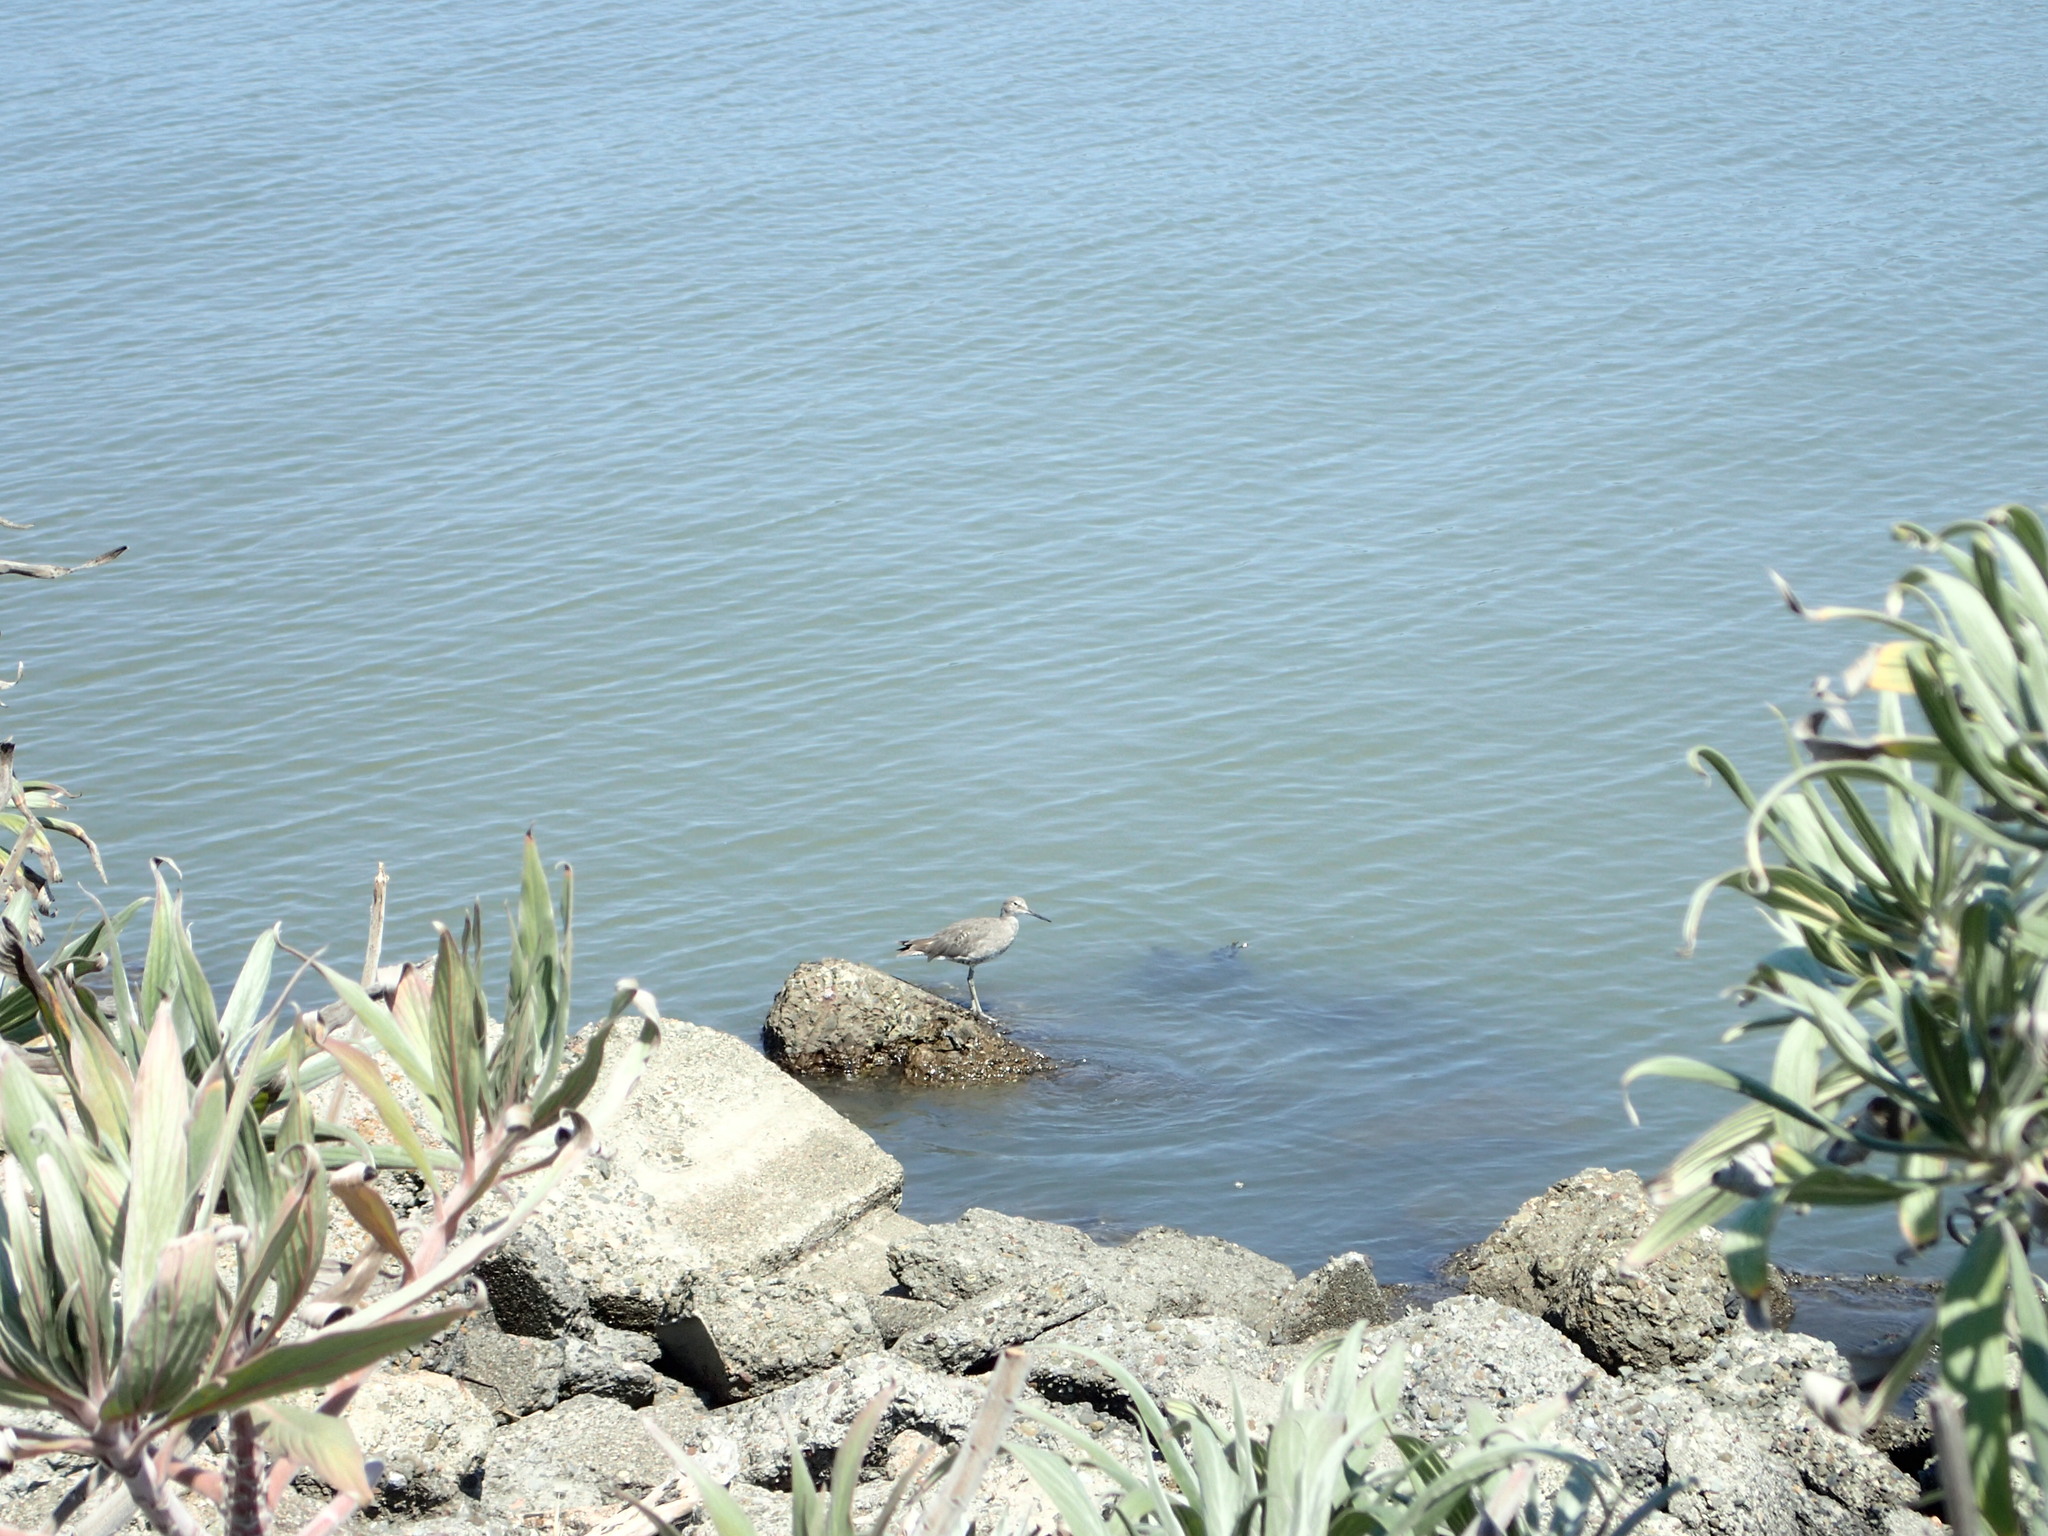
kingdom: Animalia
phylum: Chordata
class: Aves
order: Charadriiformes
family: Scolopacidae
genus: Tringa
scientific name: Tringa semipalmata
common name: Willet
